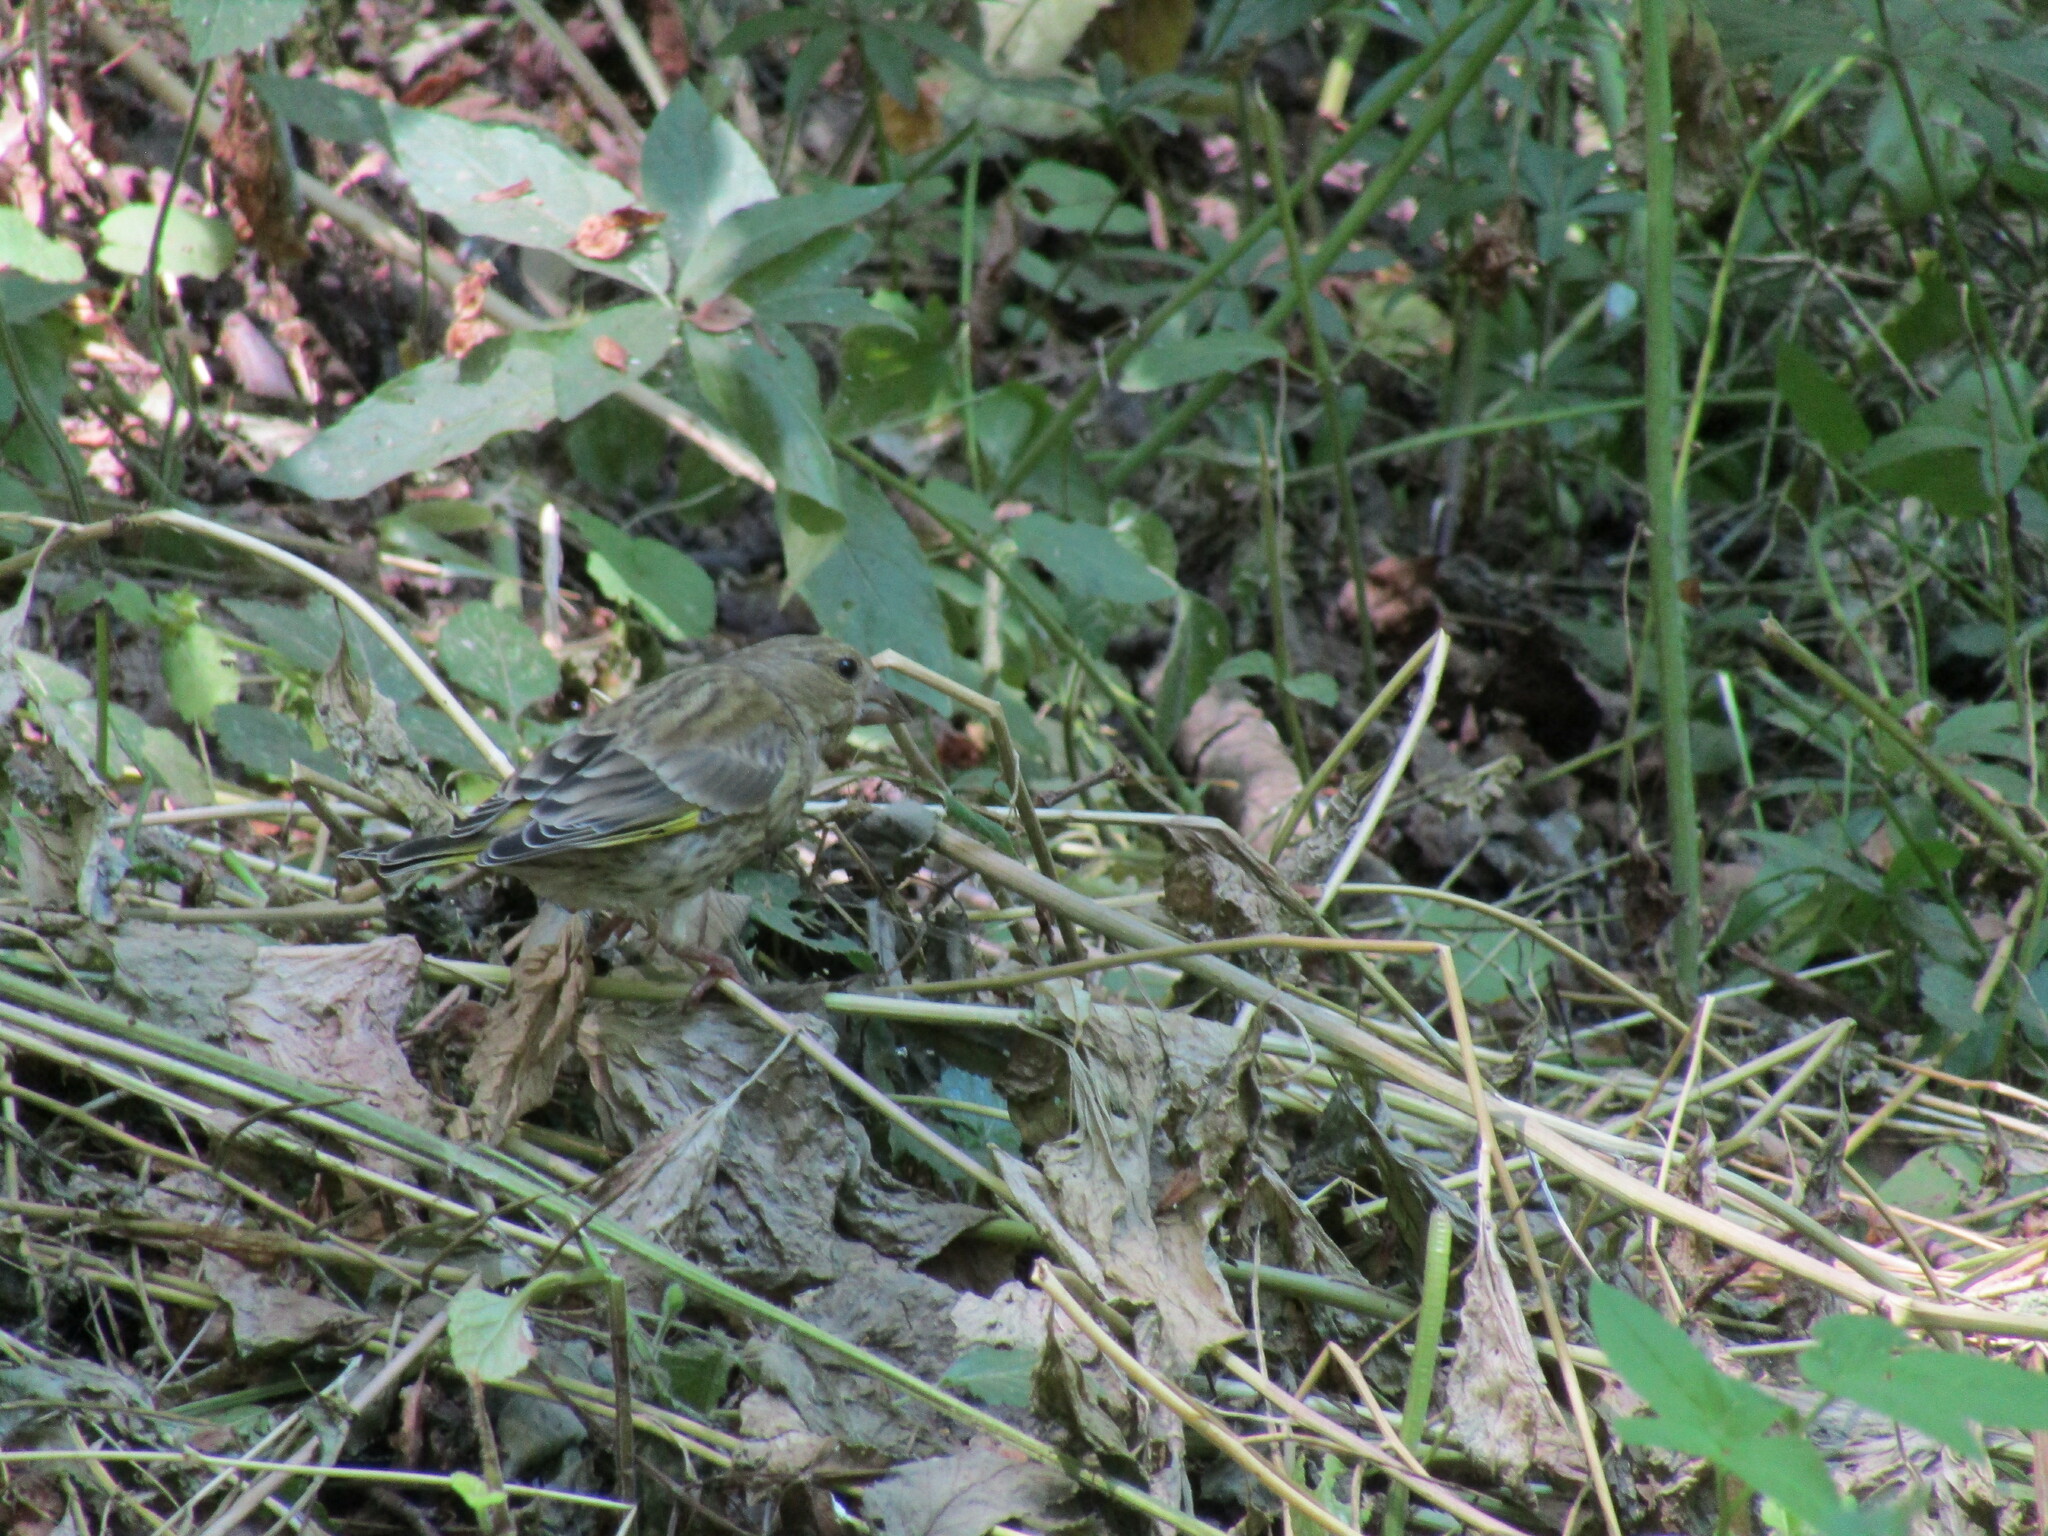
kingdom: Plantae
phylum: Tracheophyta
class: Liliopsida
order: Poales
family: Poaceae
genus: Chloris
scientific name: Chloris chloris
